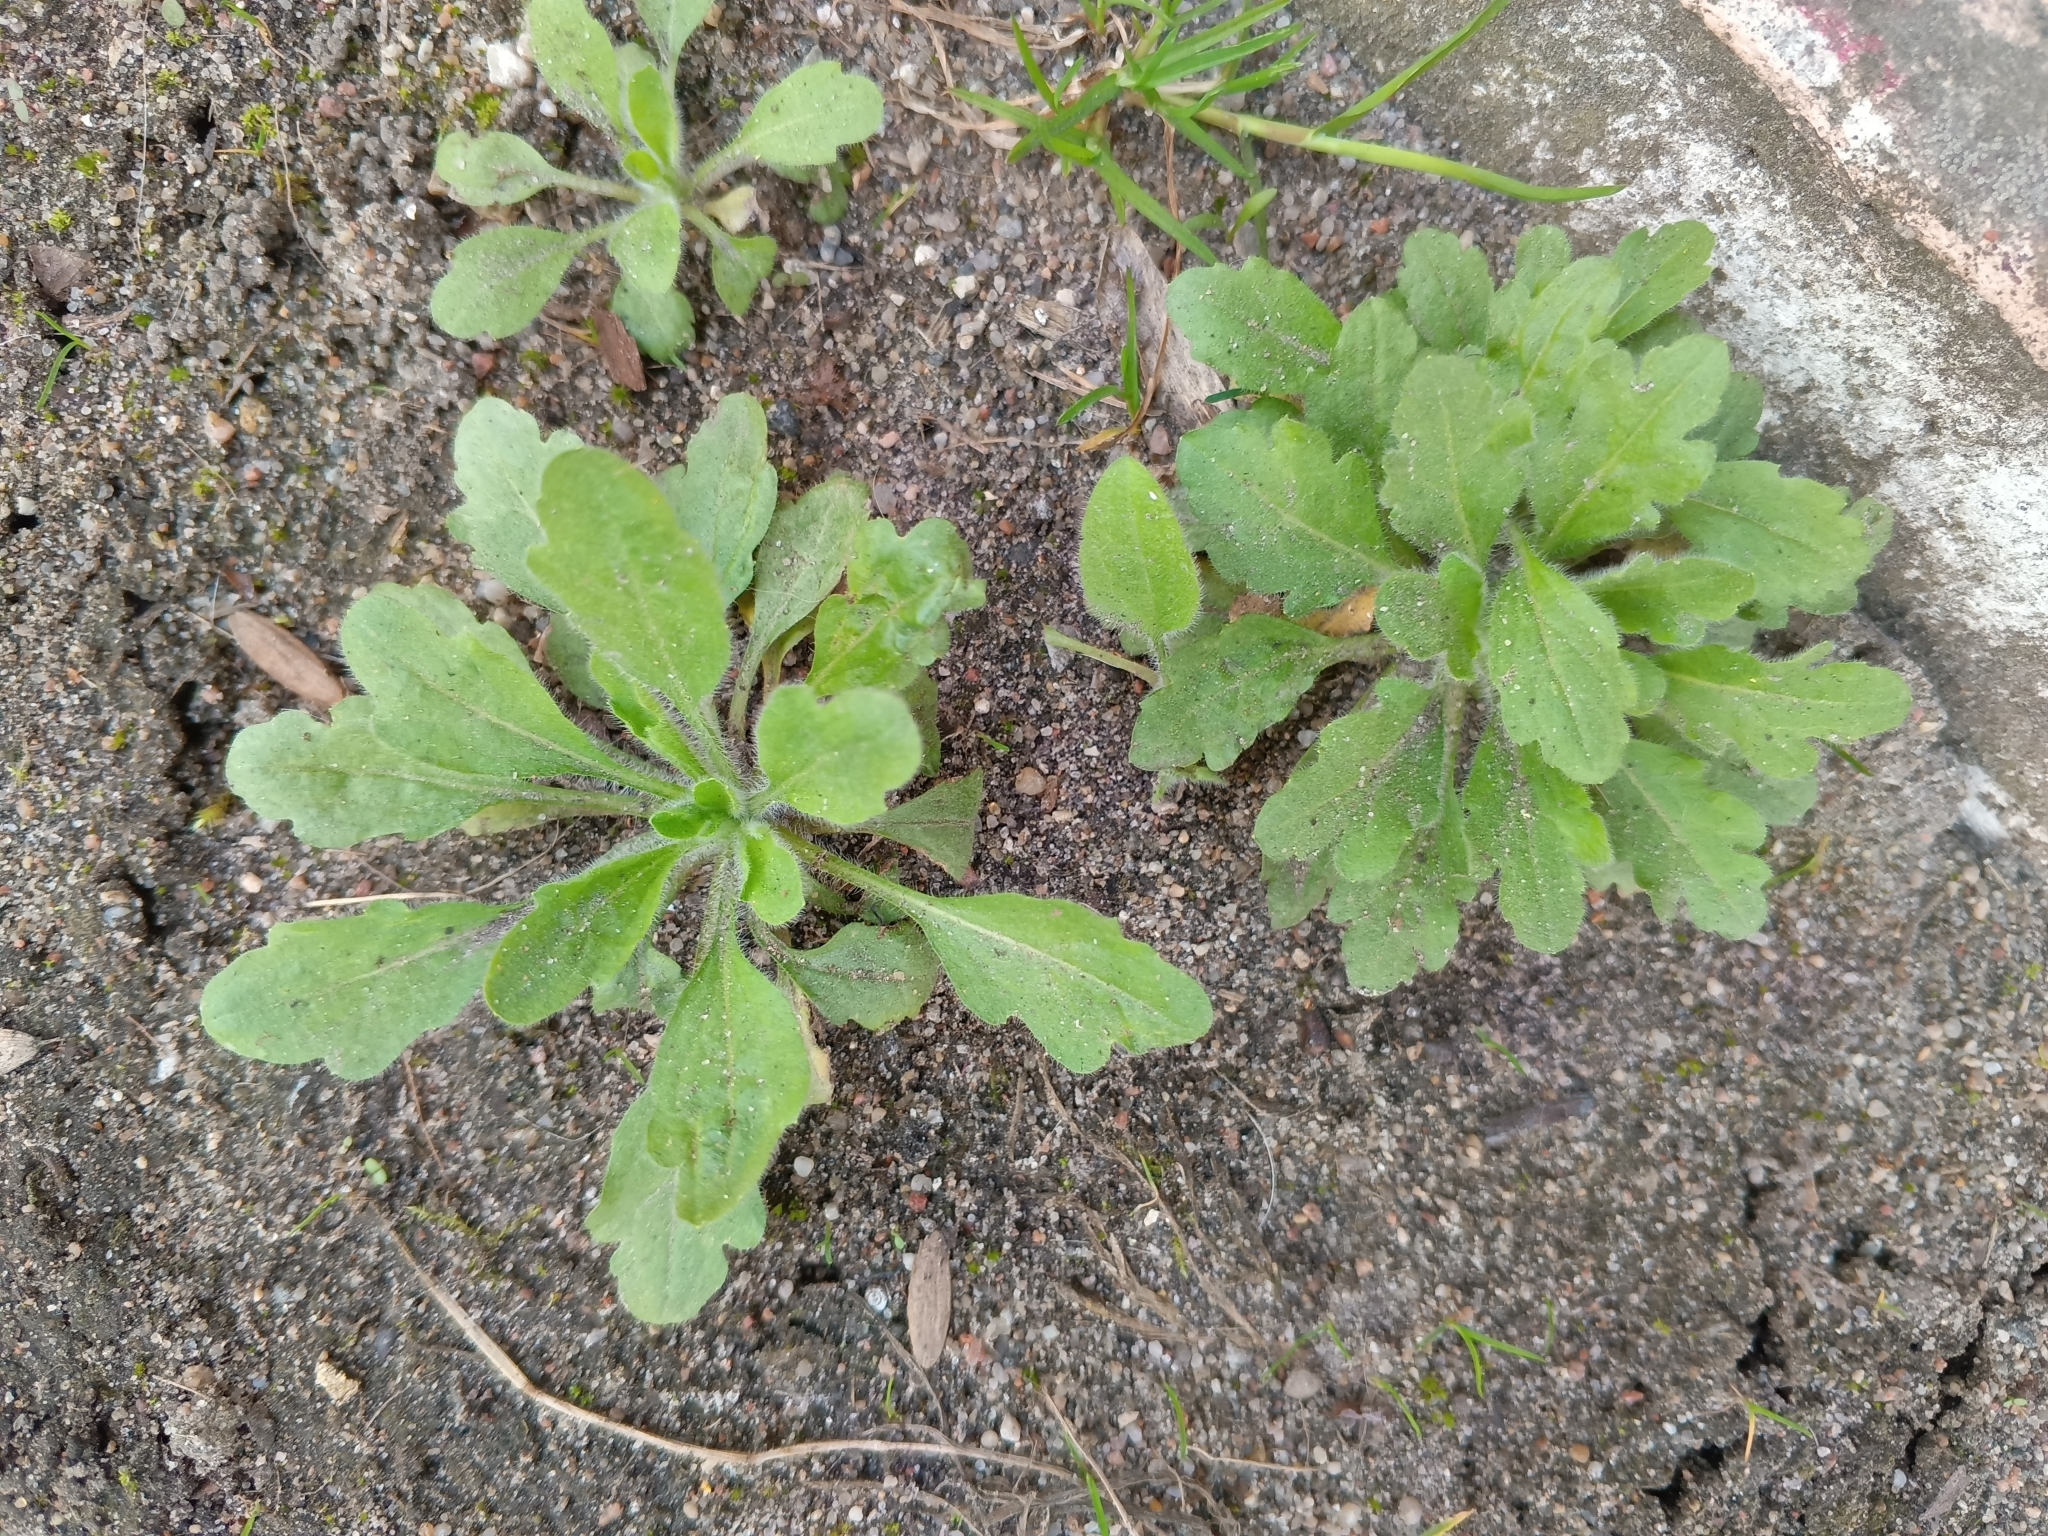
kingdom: Plantae
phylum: Tracheophyta
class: Magnoliopsida
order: Asterales
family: Asteraceae
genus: Erigeron
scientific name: Erigeron canadensis
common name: Canadian fleabane
